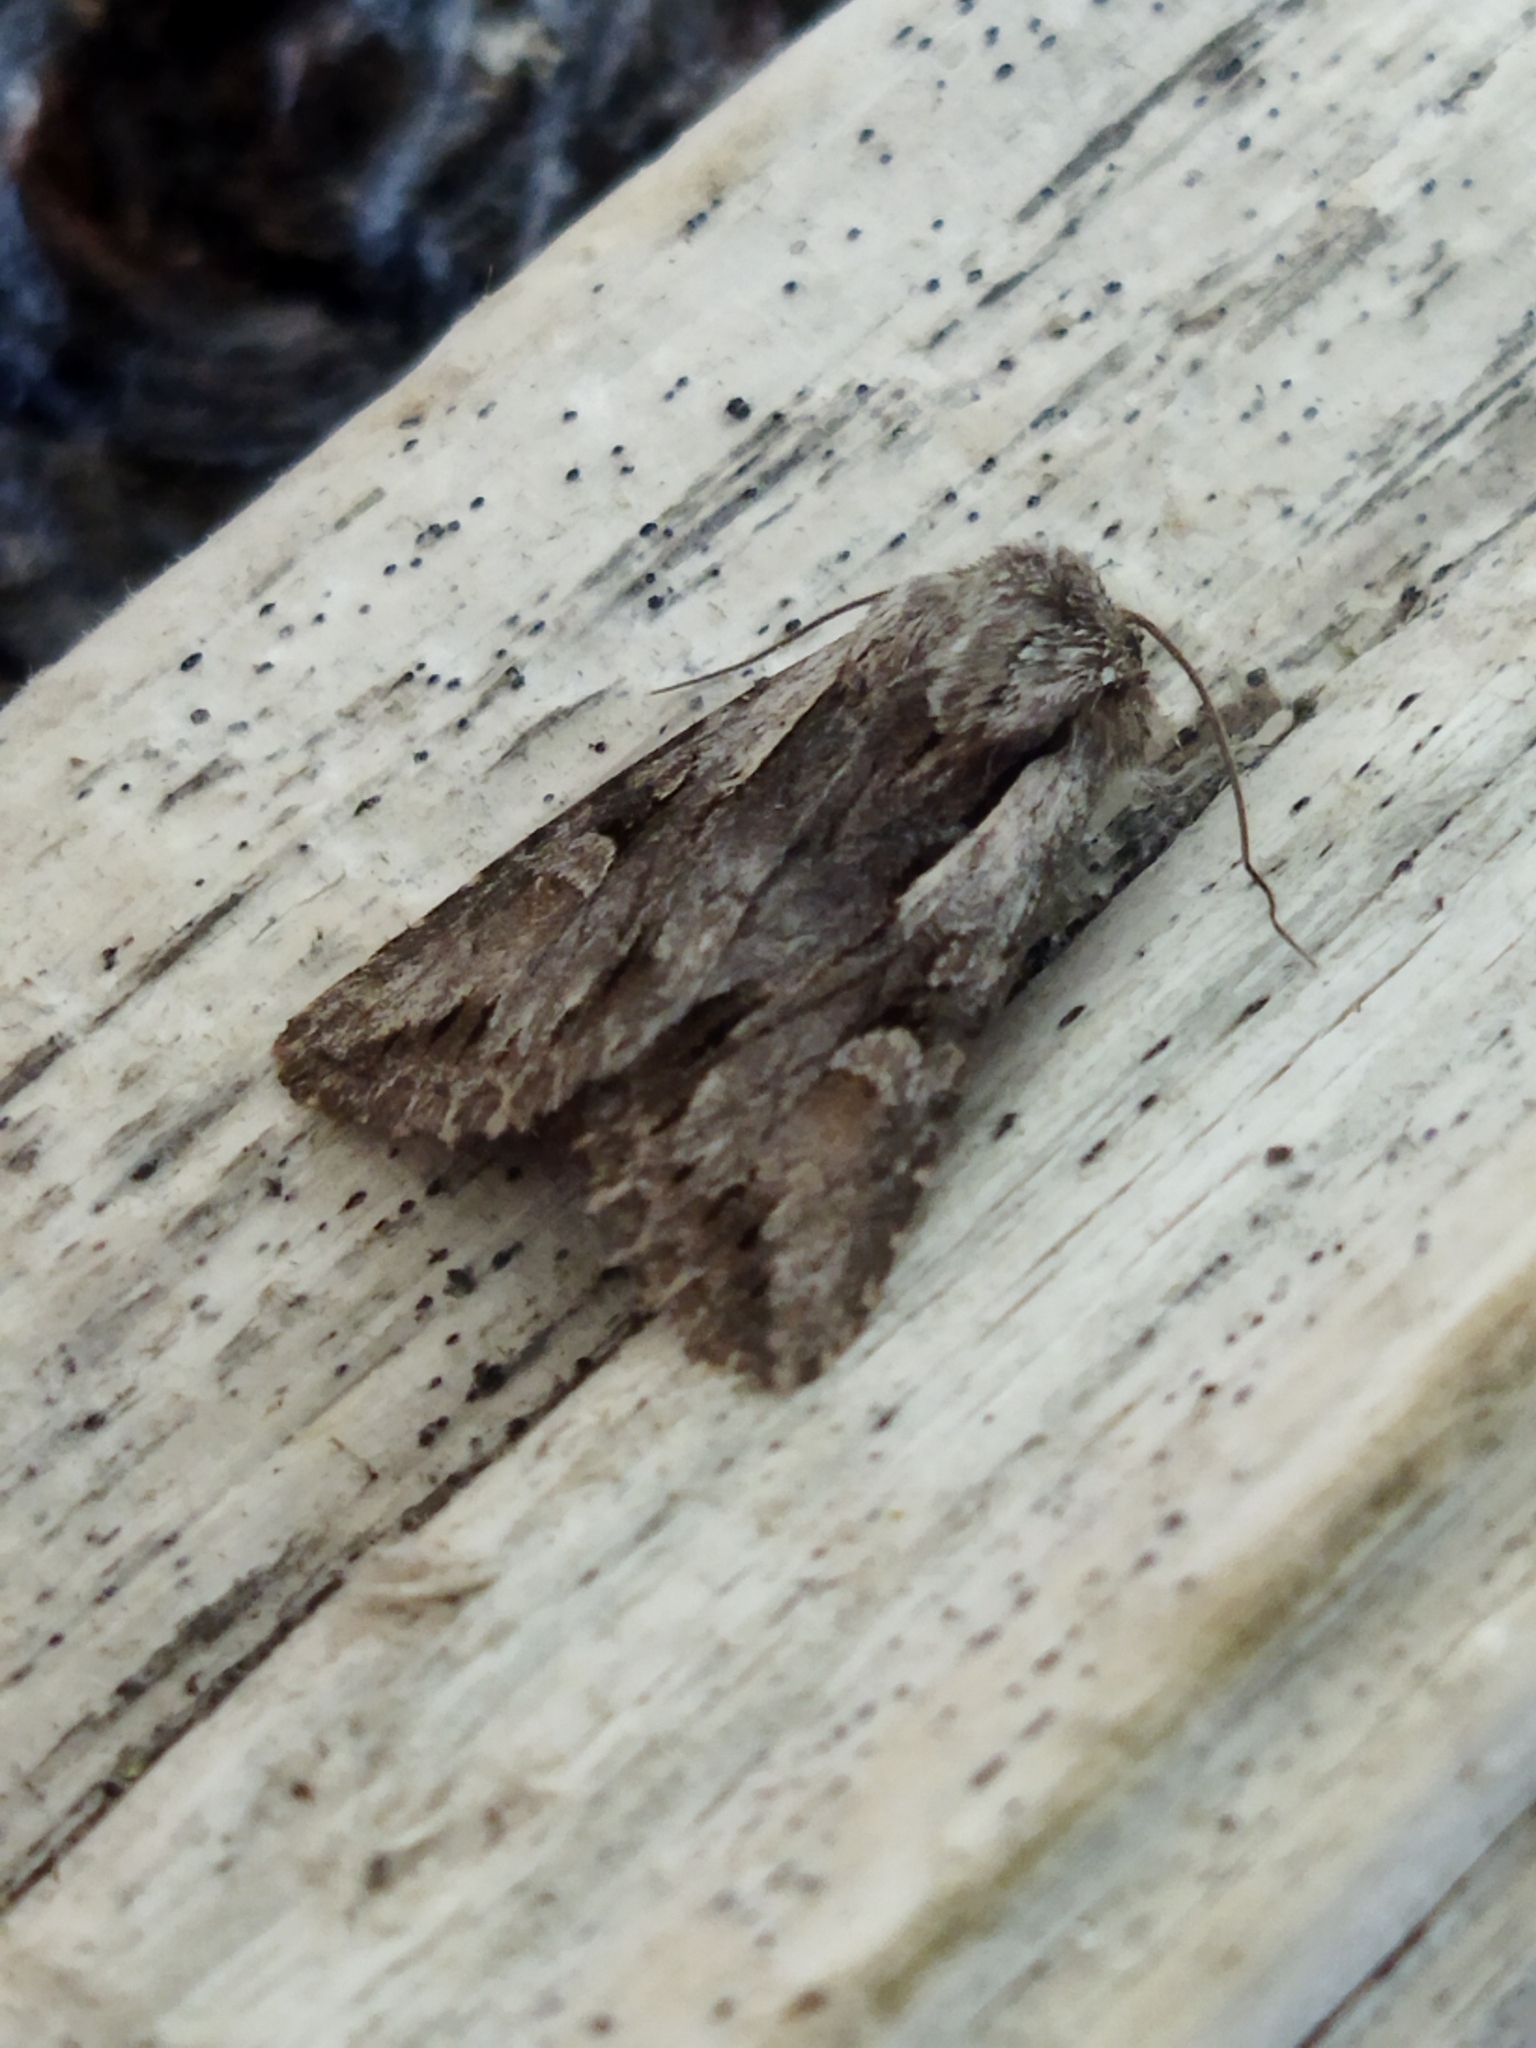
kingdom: Animalia
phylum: Arthropoda
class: Insecta
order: Lepidoptera
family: Noctuidae
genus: Chloantha
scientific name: Chloantha hyperici
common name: Pale-shouldered cloud
